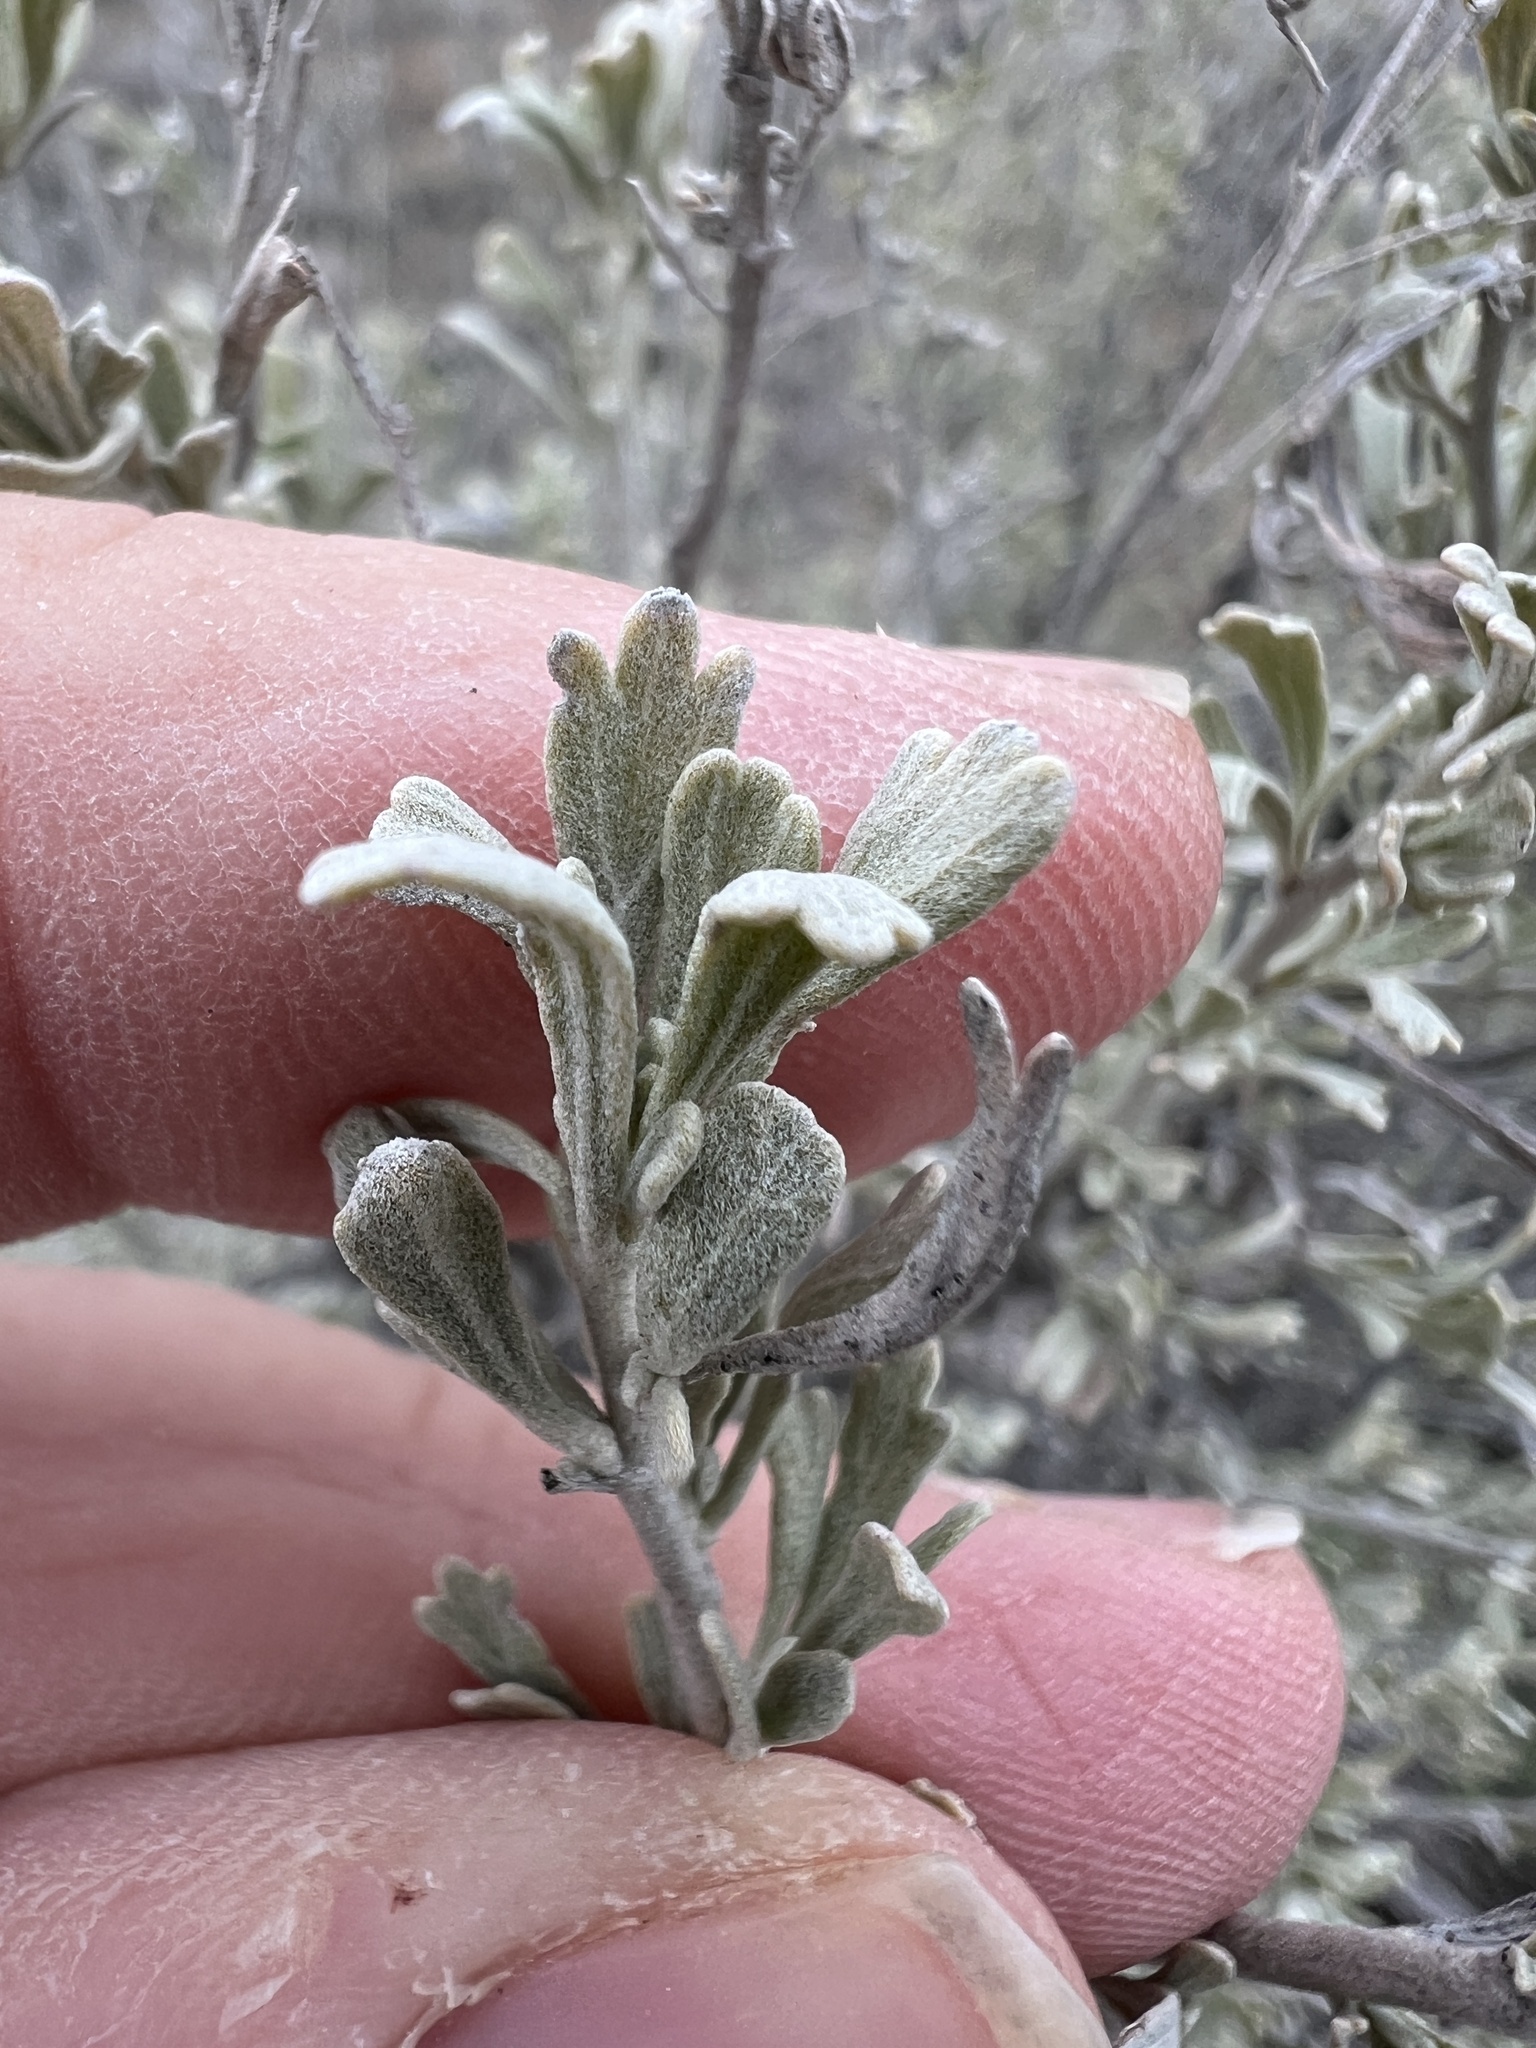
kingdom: Plantae
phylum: Tracheophyta
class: Magnoliopsida
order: Asterales
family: Asteraceae
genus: Artemisia
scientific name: Artemisia tridentata
